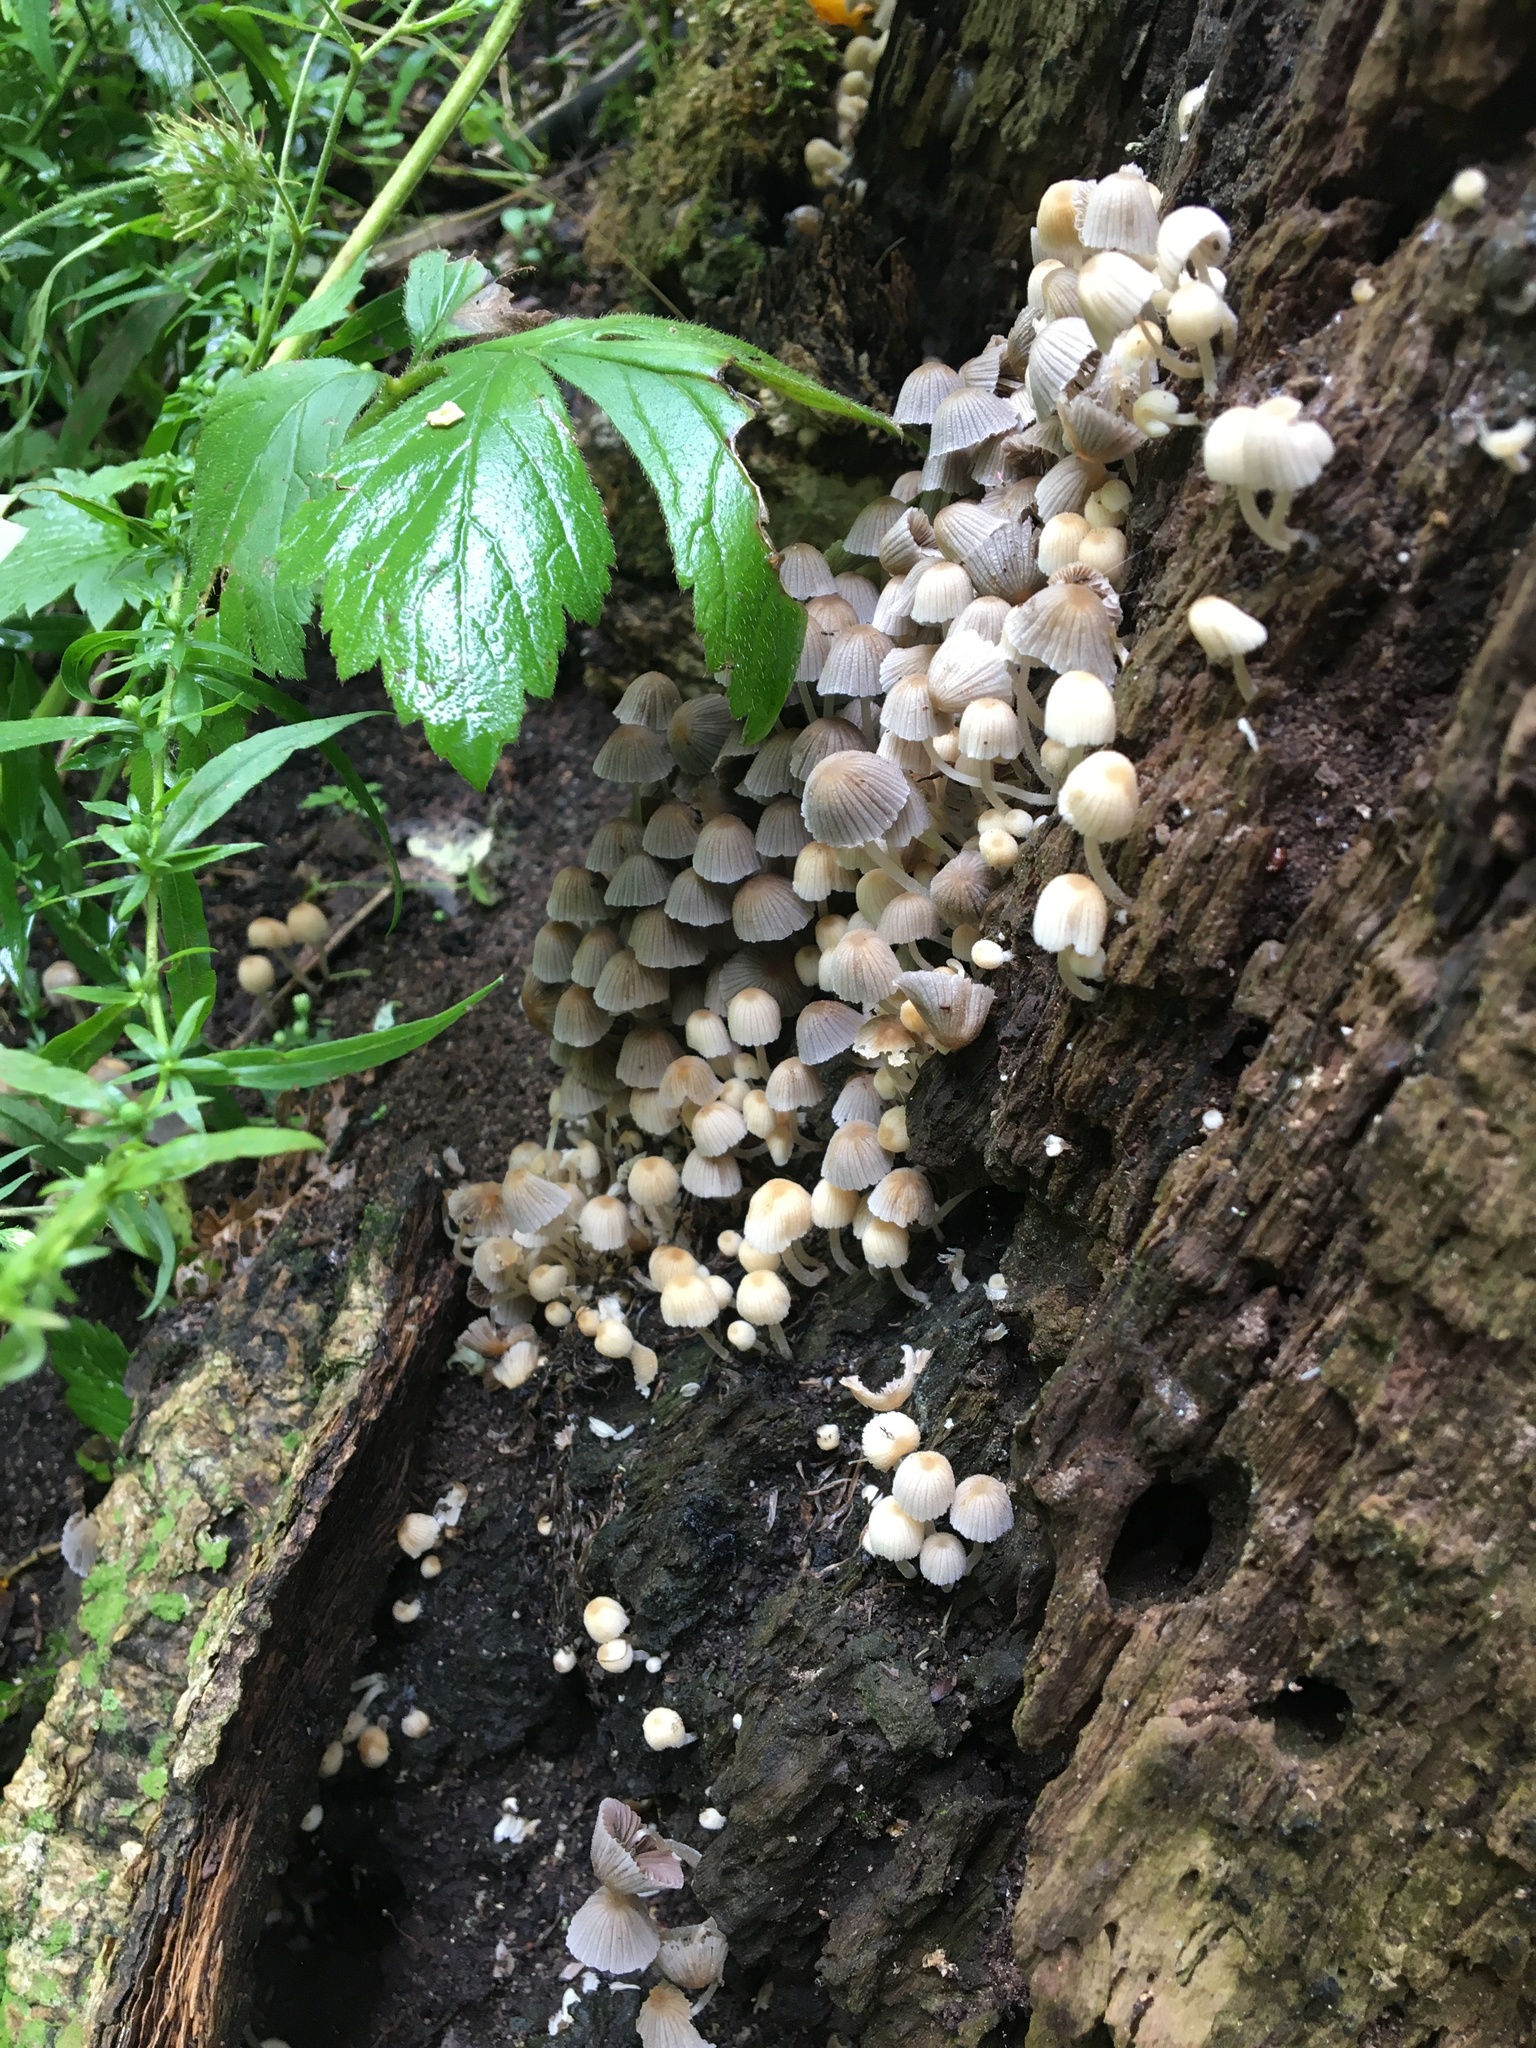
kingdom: Fungi
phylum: Basidiomycota
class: Agaricomycetes
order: Agaricales
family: Psathyrellaceae
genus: Coprinellus
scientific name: Coprinellus disseminatus
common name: Fairies' bonnets
